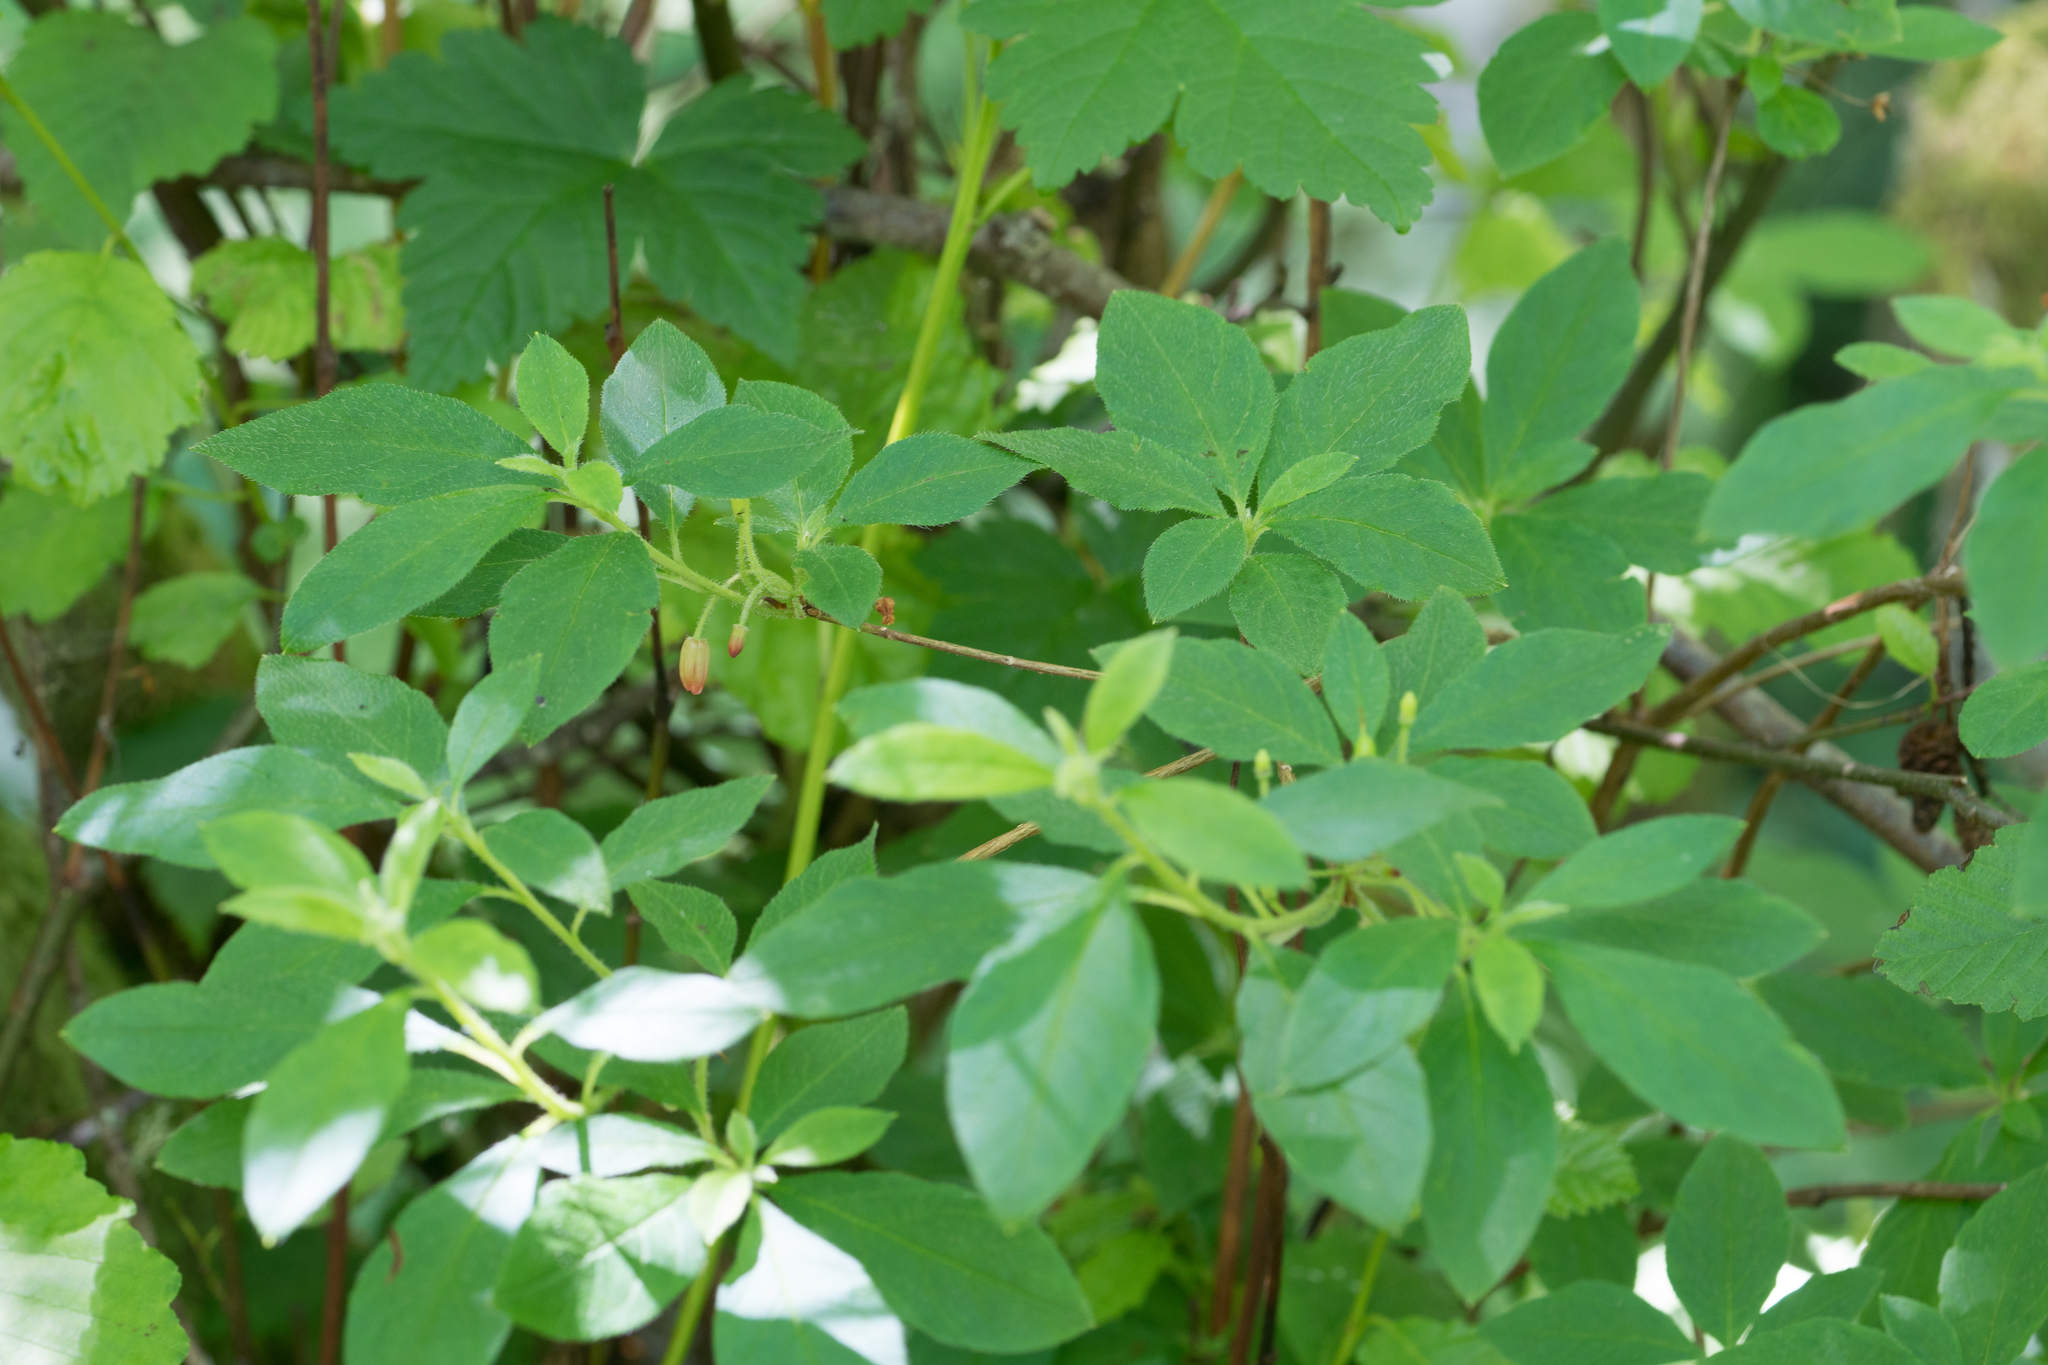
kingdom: Plantae
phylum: Tracheophyta
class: Magnoliopsida
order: Ericales
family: Ericaceae
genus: Rhododendron
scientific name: Rhododendron menziesii
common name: Pacific menziesia
